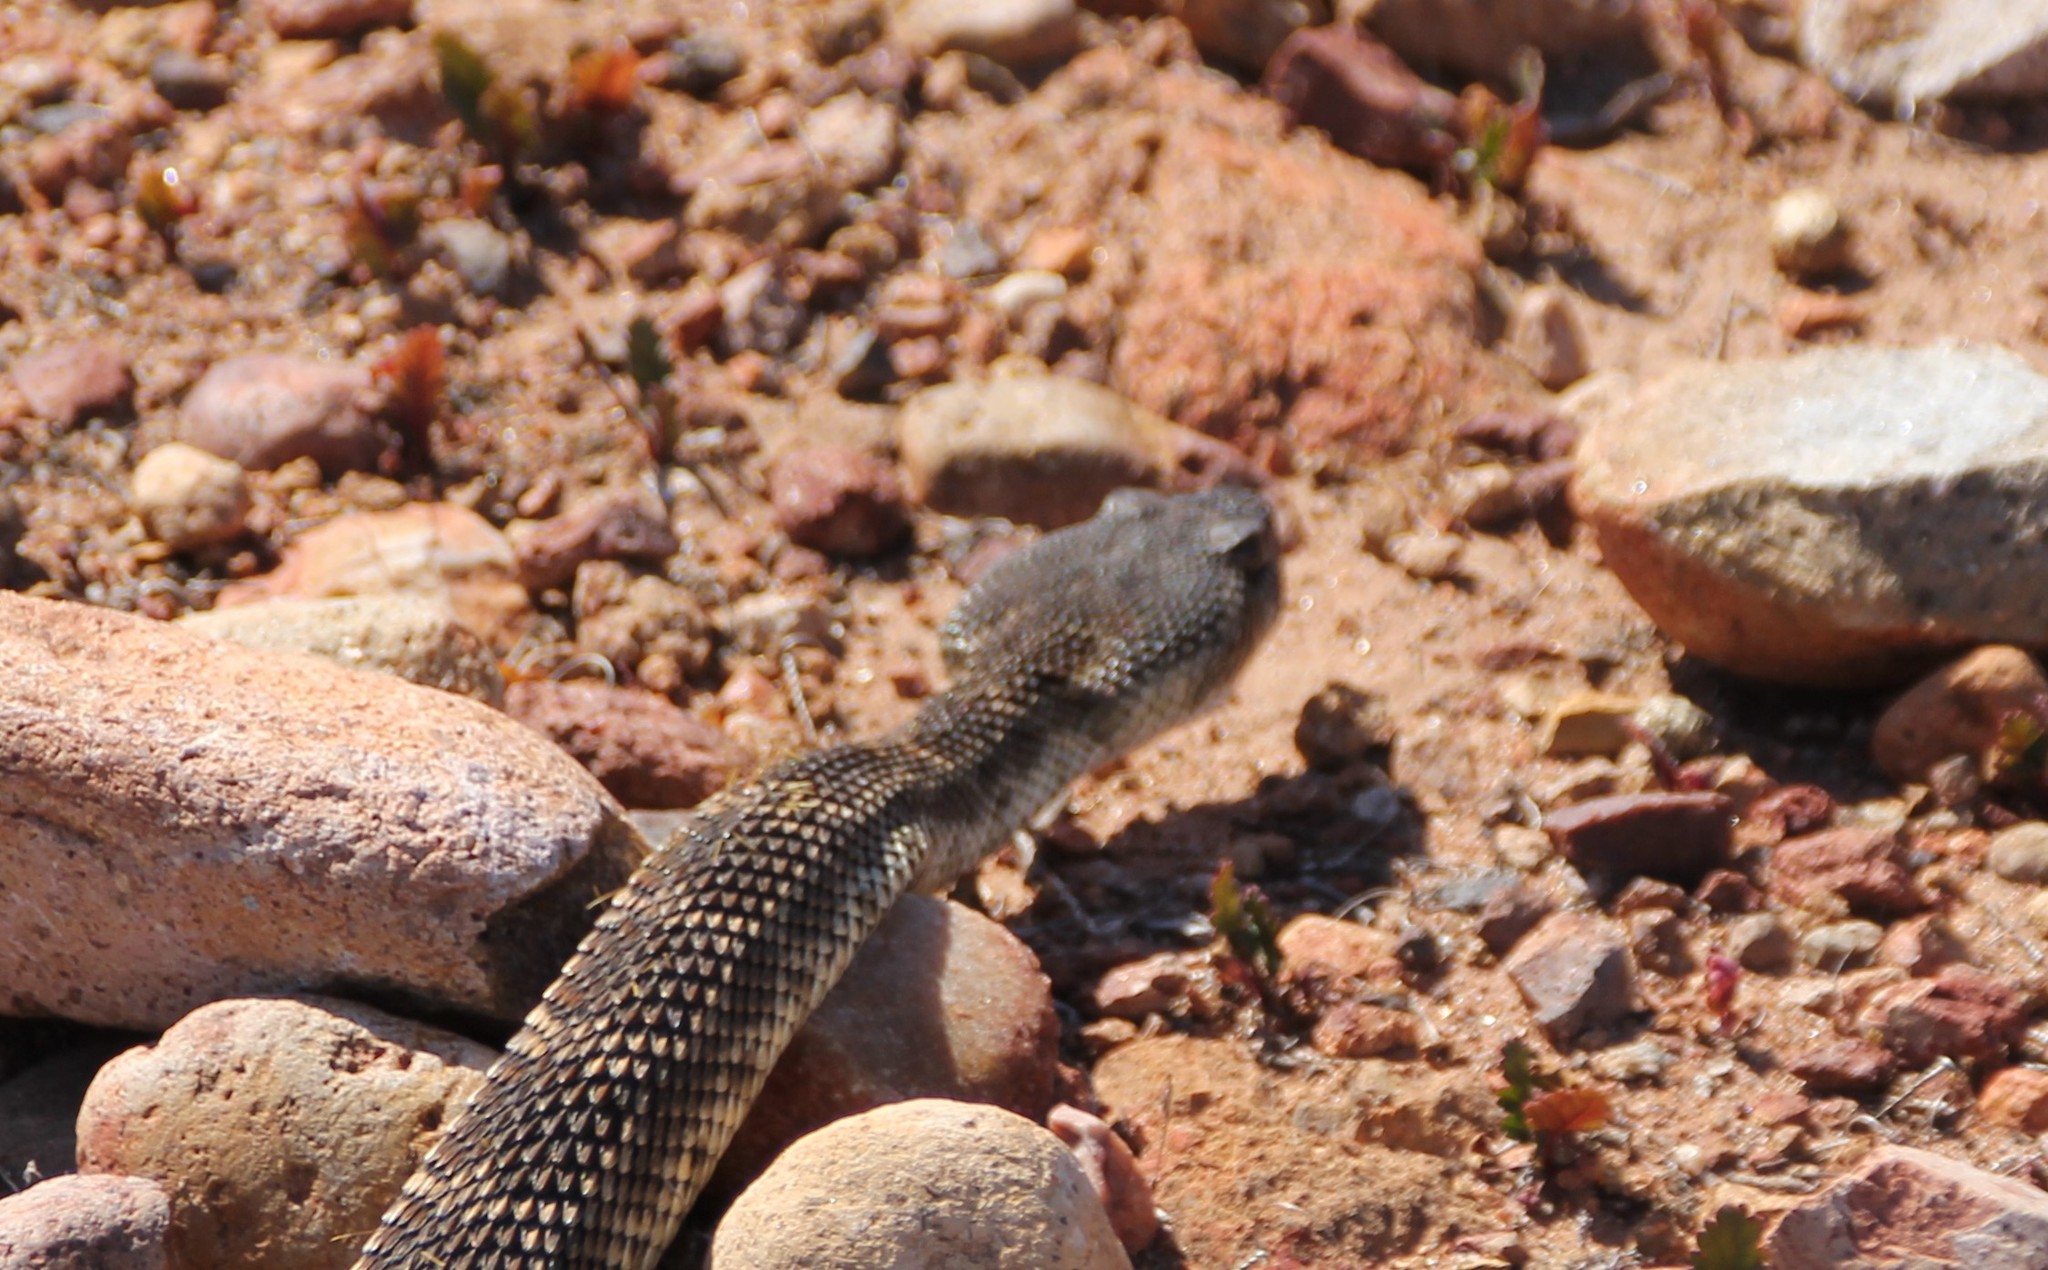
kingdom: Animalia
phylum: Chordata
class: Squamata
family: Viperidae
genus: Crotalus
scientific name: Crotalus oreganus
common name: Abyssus
